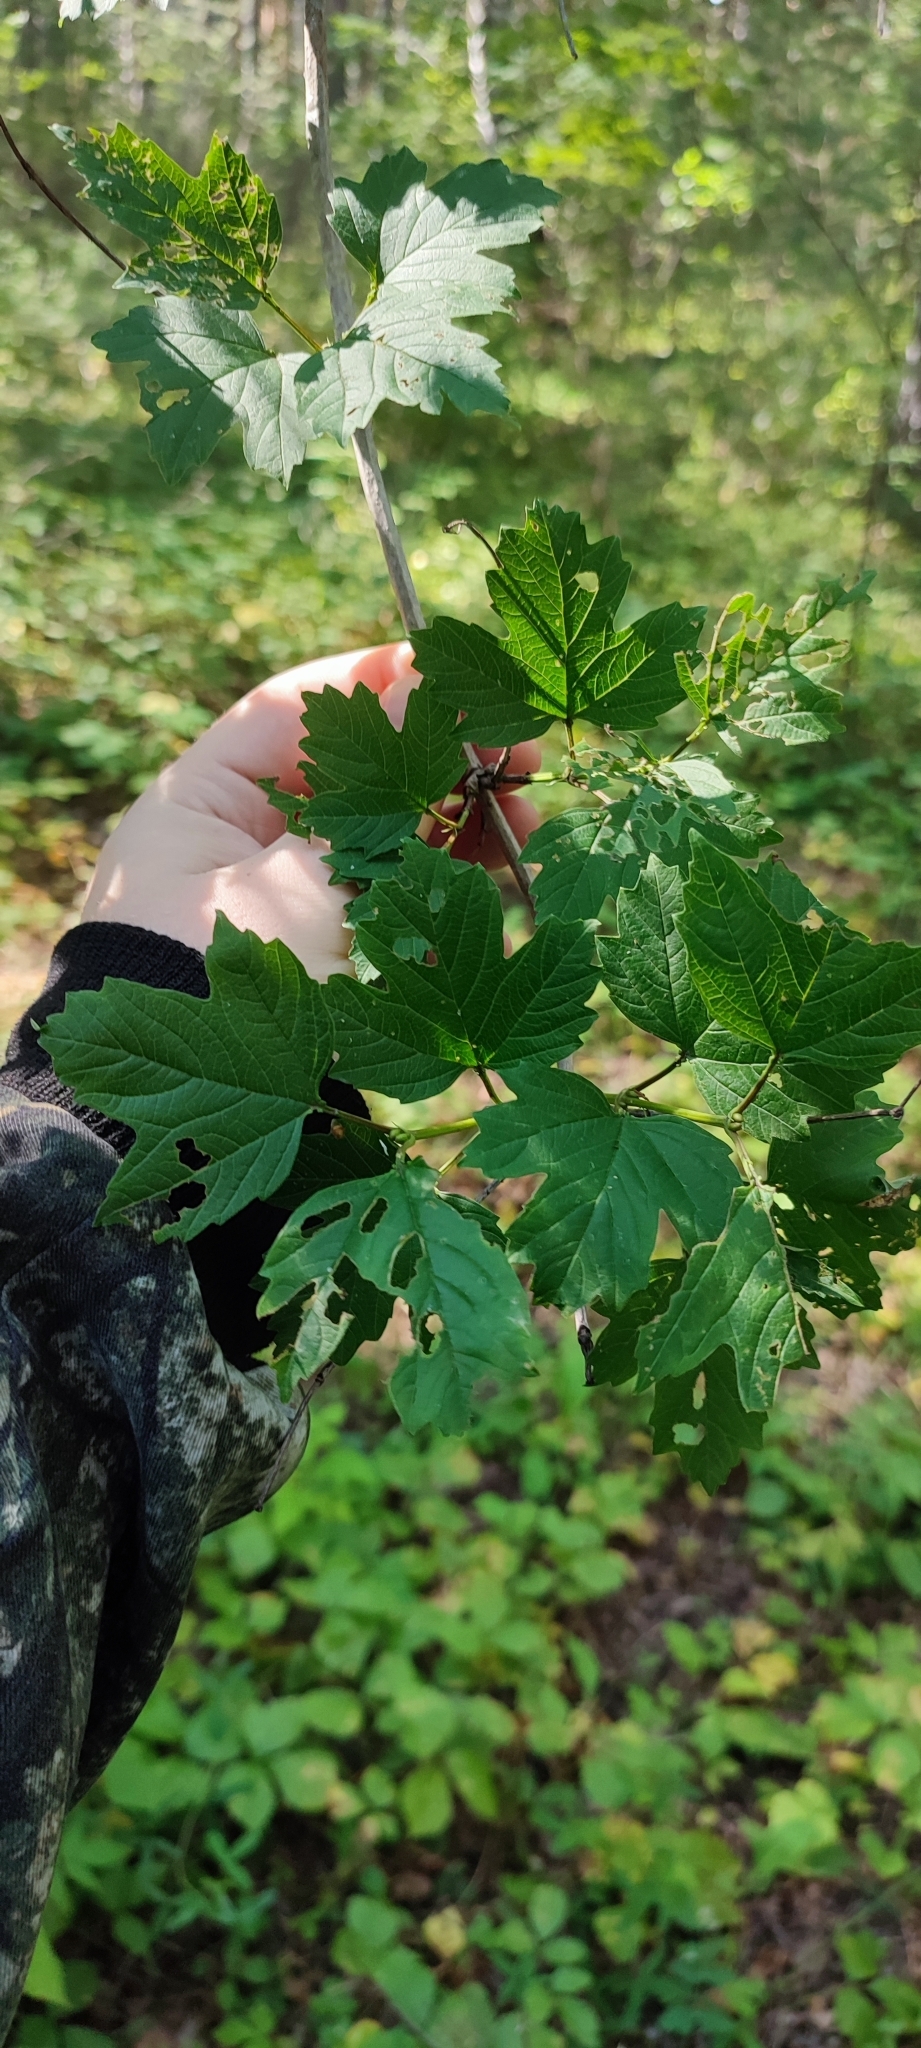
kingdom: Plantae
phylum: Tracheophyta
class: Magnoliopsida
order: Dipsacales
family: Viburnaceae
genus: Viburnum
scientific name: Viburnum opulus
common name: Guelder-rose
